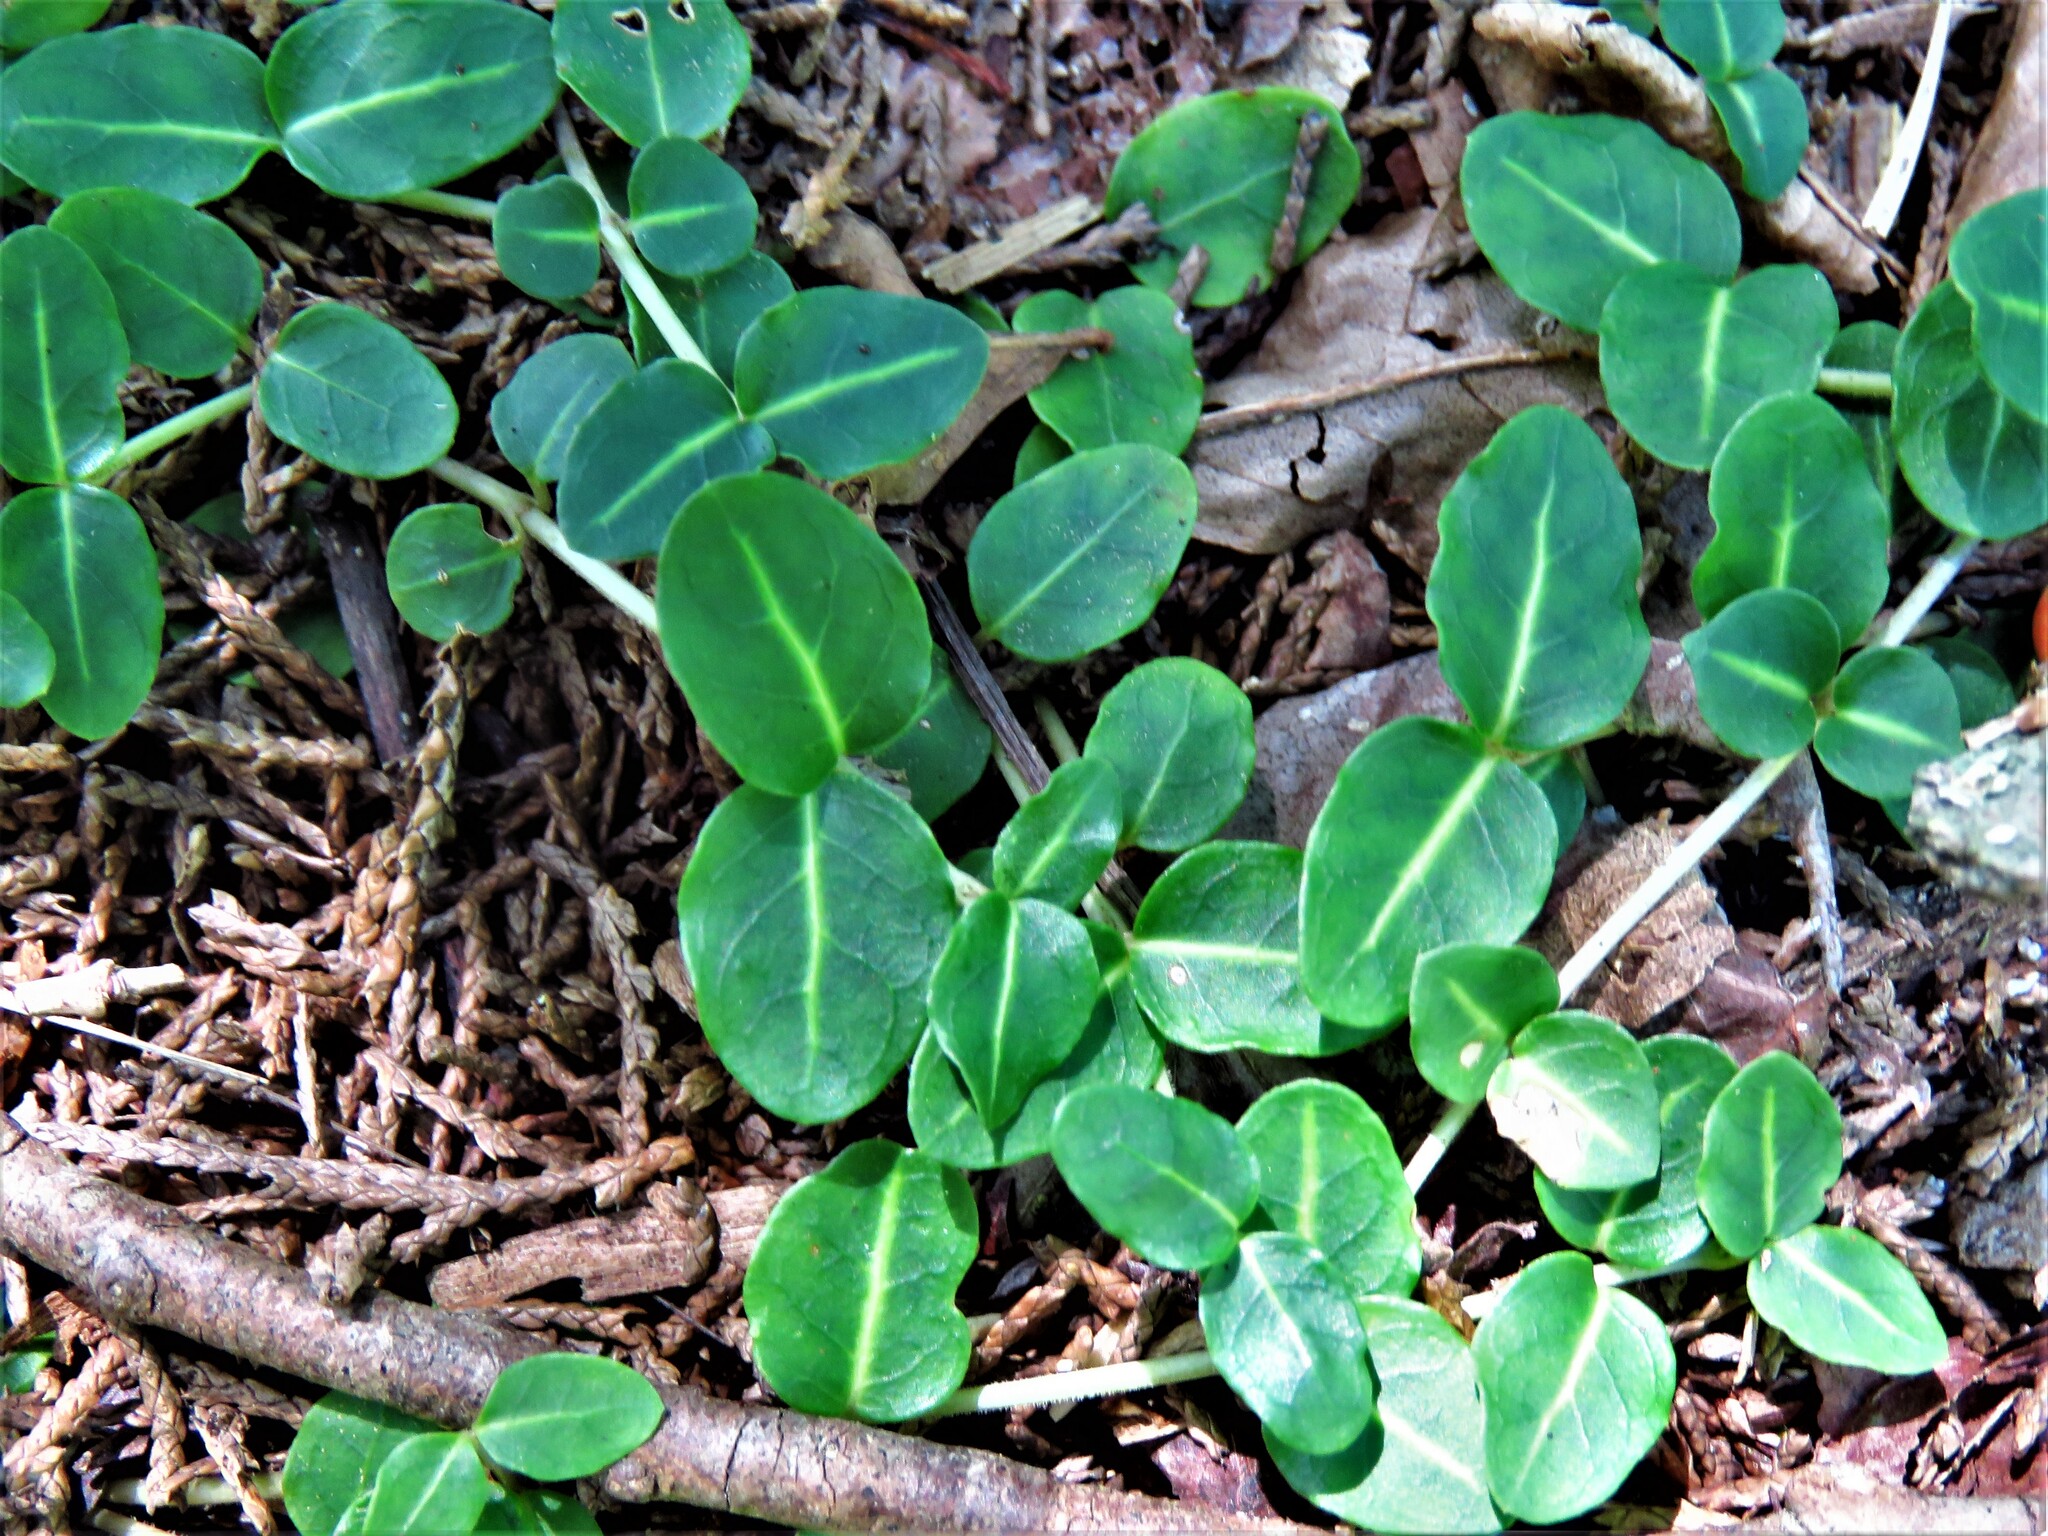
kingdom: Plantae
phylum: Tracheophyta
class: Magnoliopsida
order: Gentianales
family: Rubiaceae
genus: Mitchella
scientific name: Mitchella repens
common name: Partridge-berry
